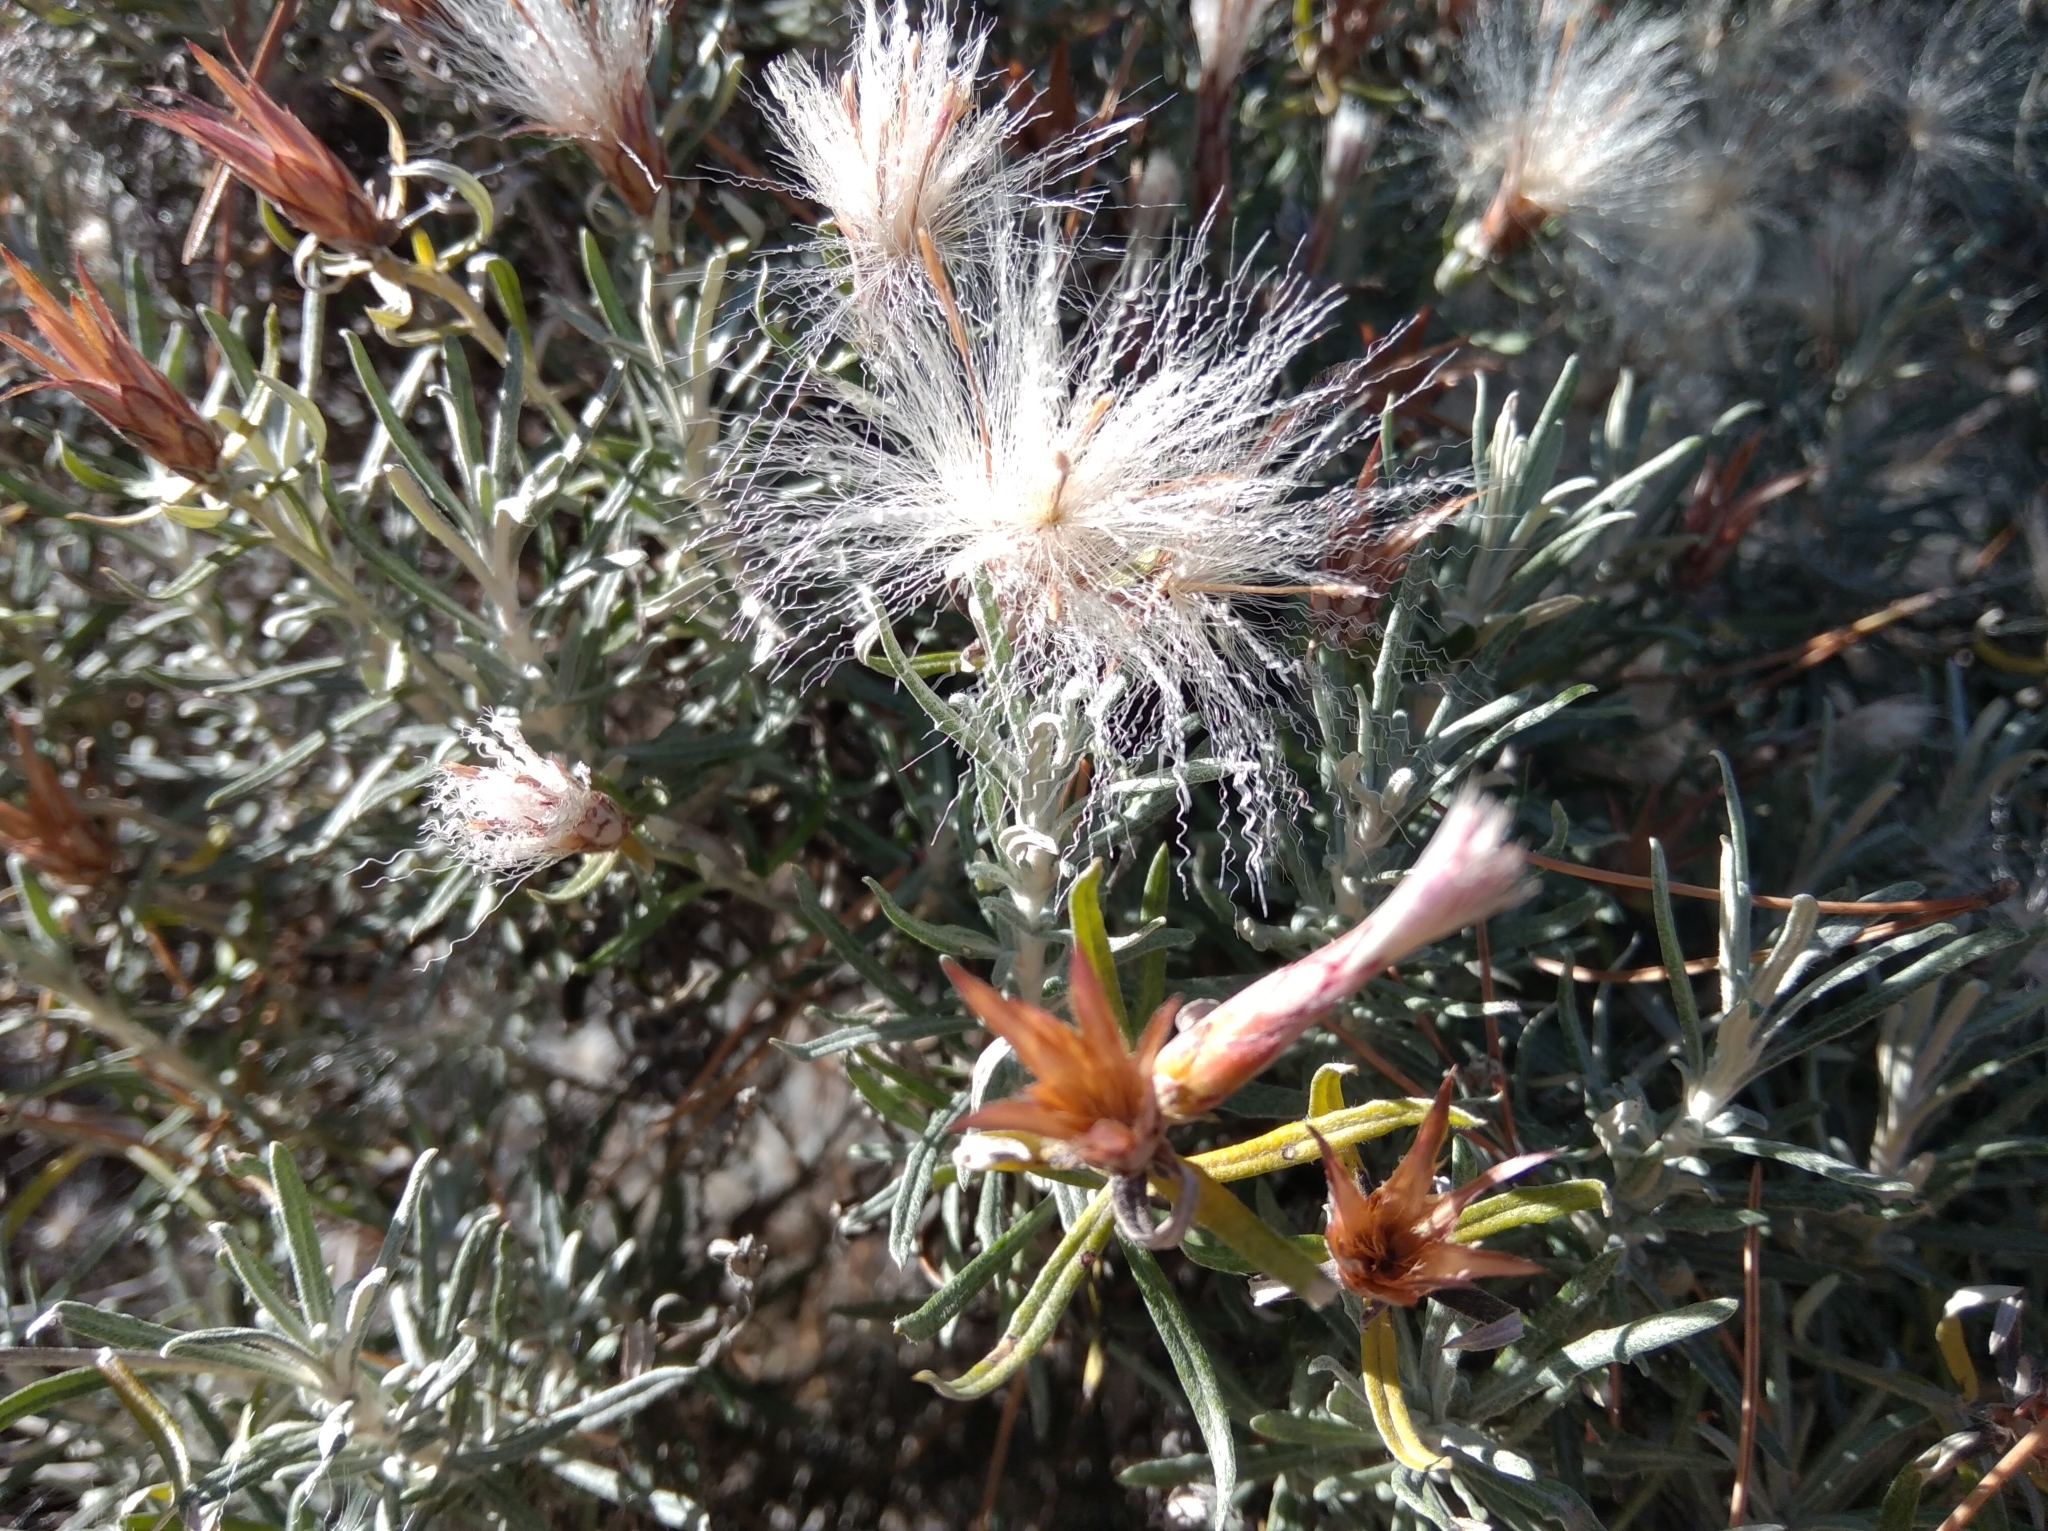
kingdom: Plantae
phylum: Tracheophyta
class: Magnoliopsida
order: Asterales
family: Asteraceae
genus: Staehelina
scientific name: Staehelina dubia
